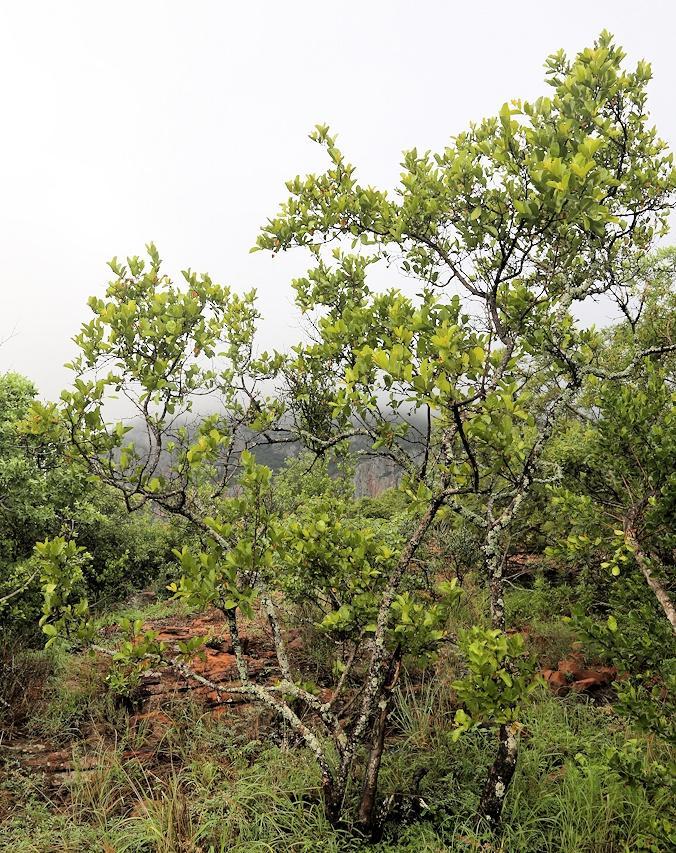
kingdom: Plantae
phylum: Tracheophyta
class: Magnoliopsida
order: Myrtales
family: Combretaceae
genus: Combretum
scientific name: Combretum apiculatum
